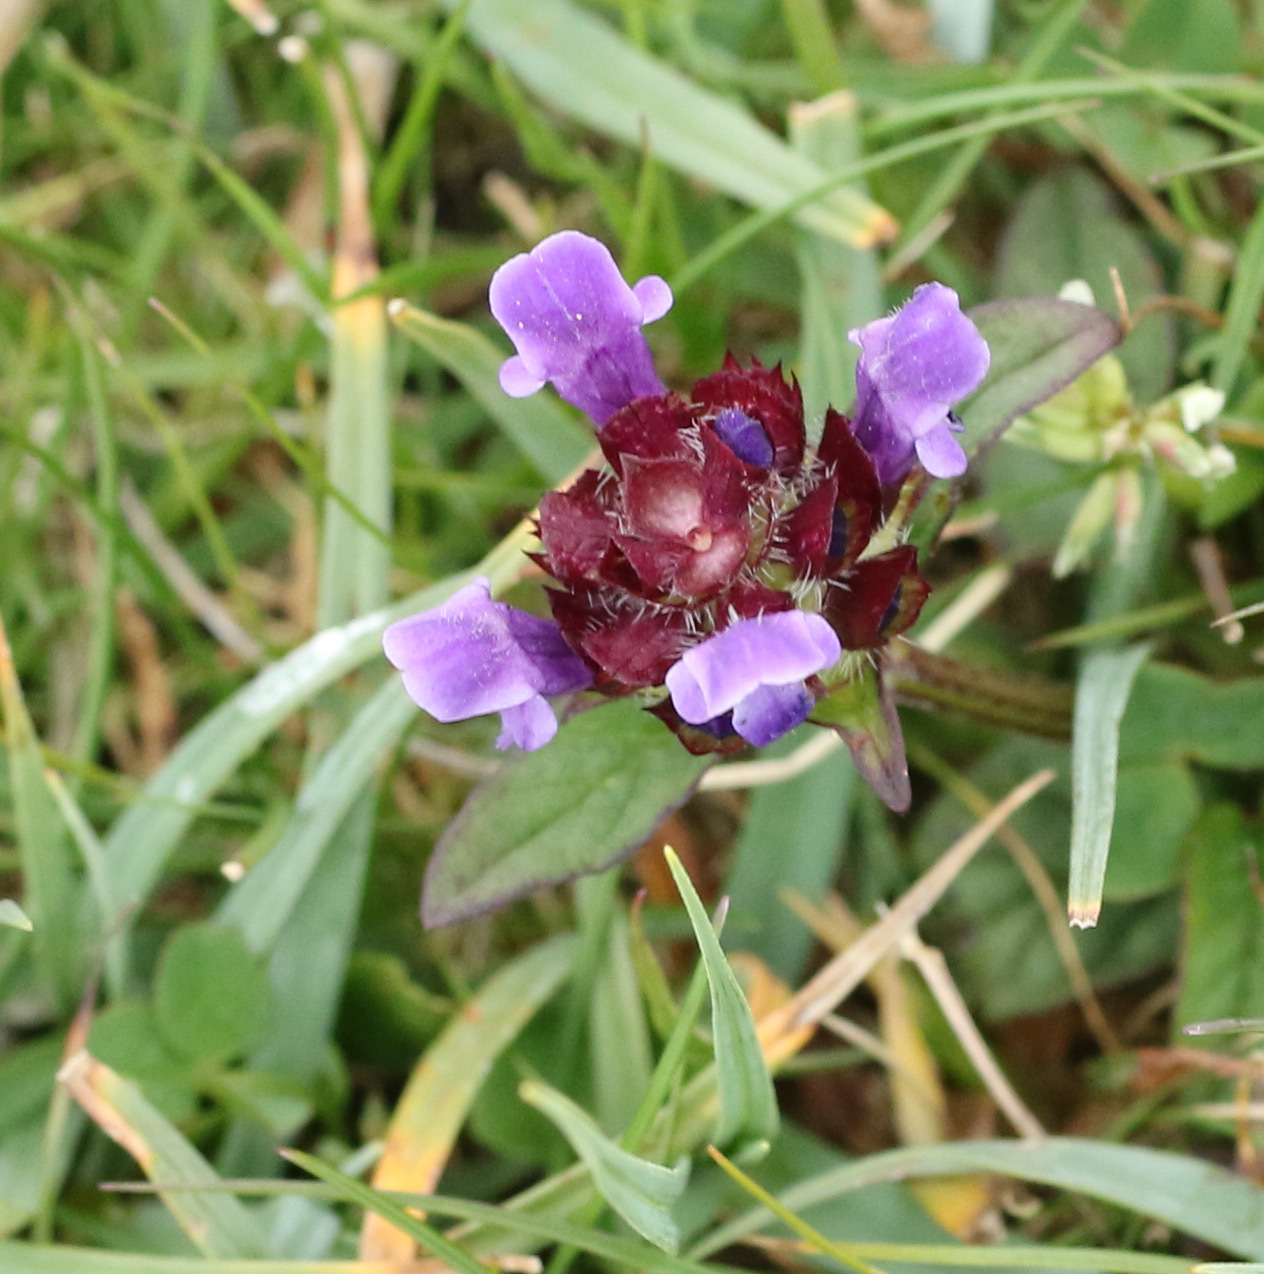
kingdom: Plantae
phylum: Tracheophyta
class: Magnoliopsida
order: Lamiales
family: Lamiaceae
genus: Prunella
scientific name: Prunella vulgaris
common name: Heal-all
